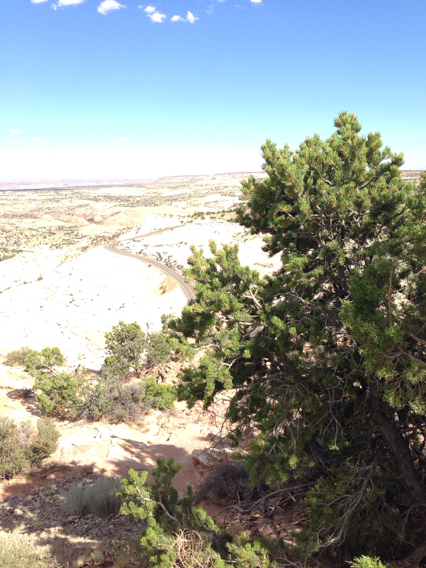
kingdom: Plantae
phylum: Tracheophyta
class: Pinopsida
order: Pinales
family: Pinaceae
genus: Pinus
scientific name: Pinus edulis
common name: Colorado pinyon
